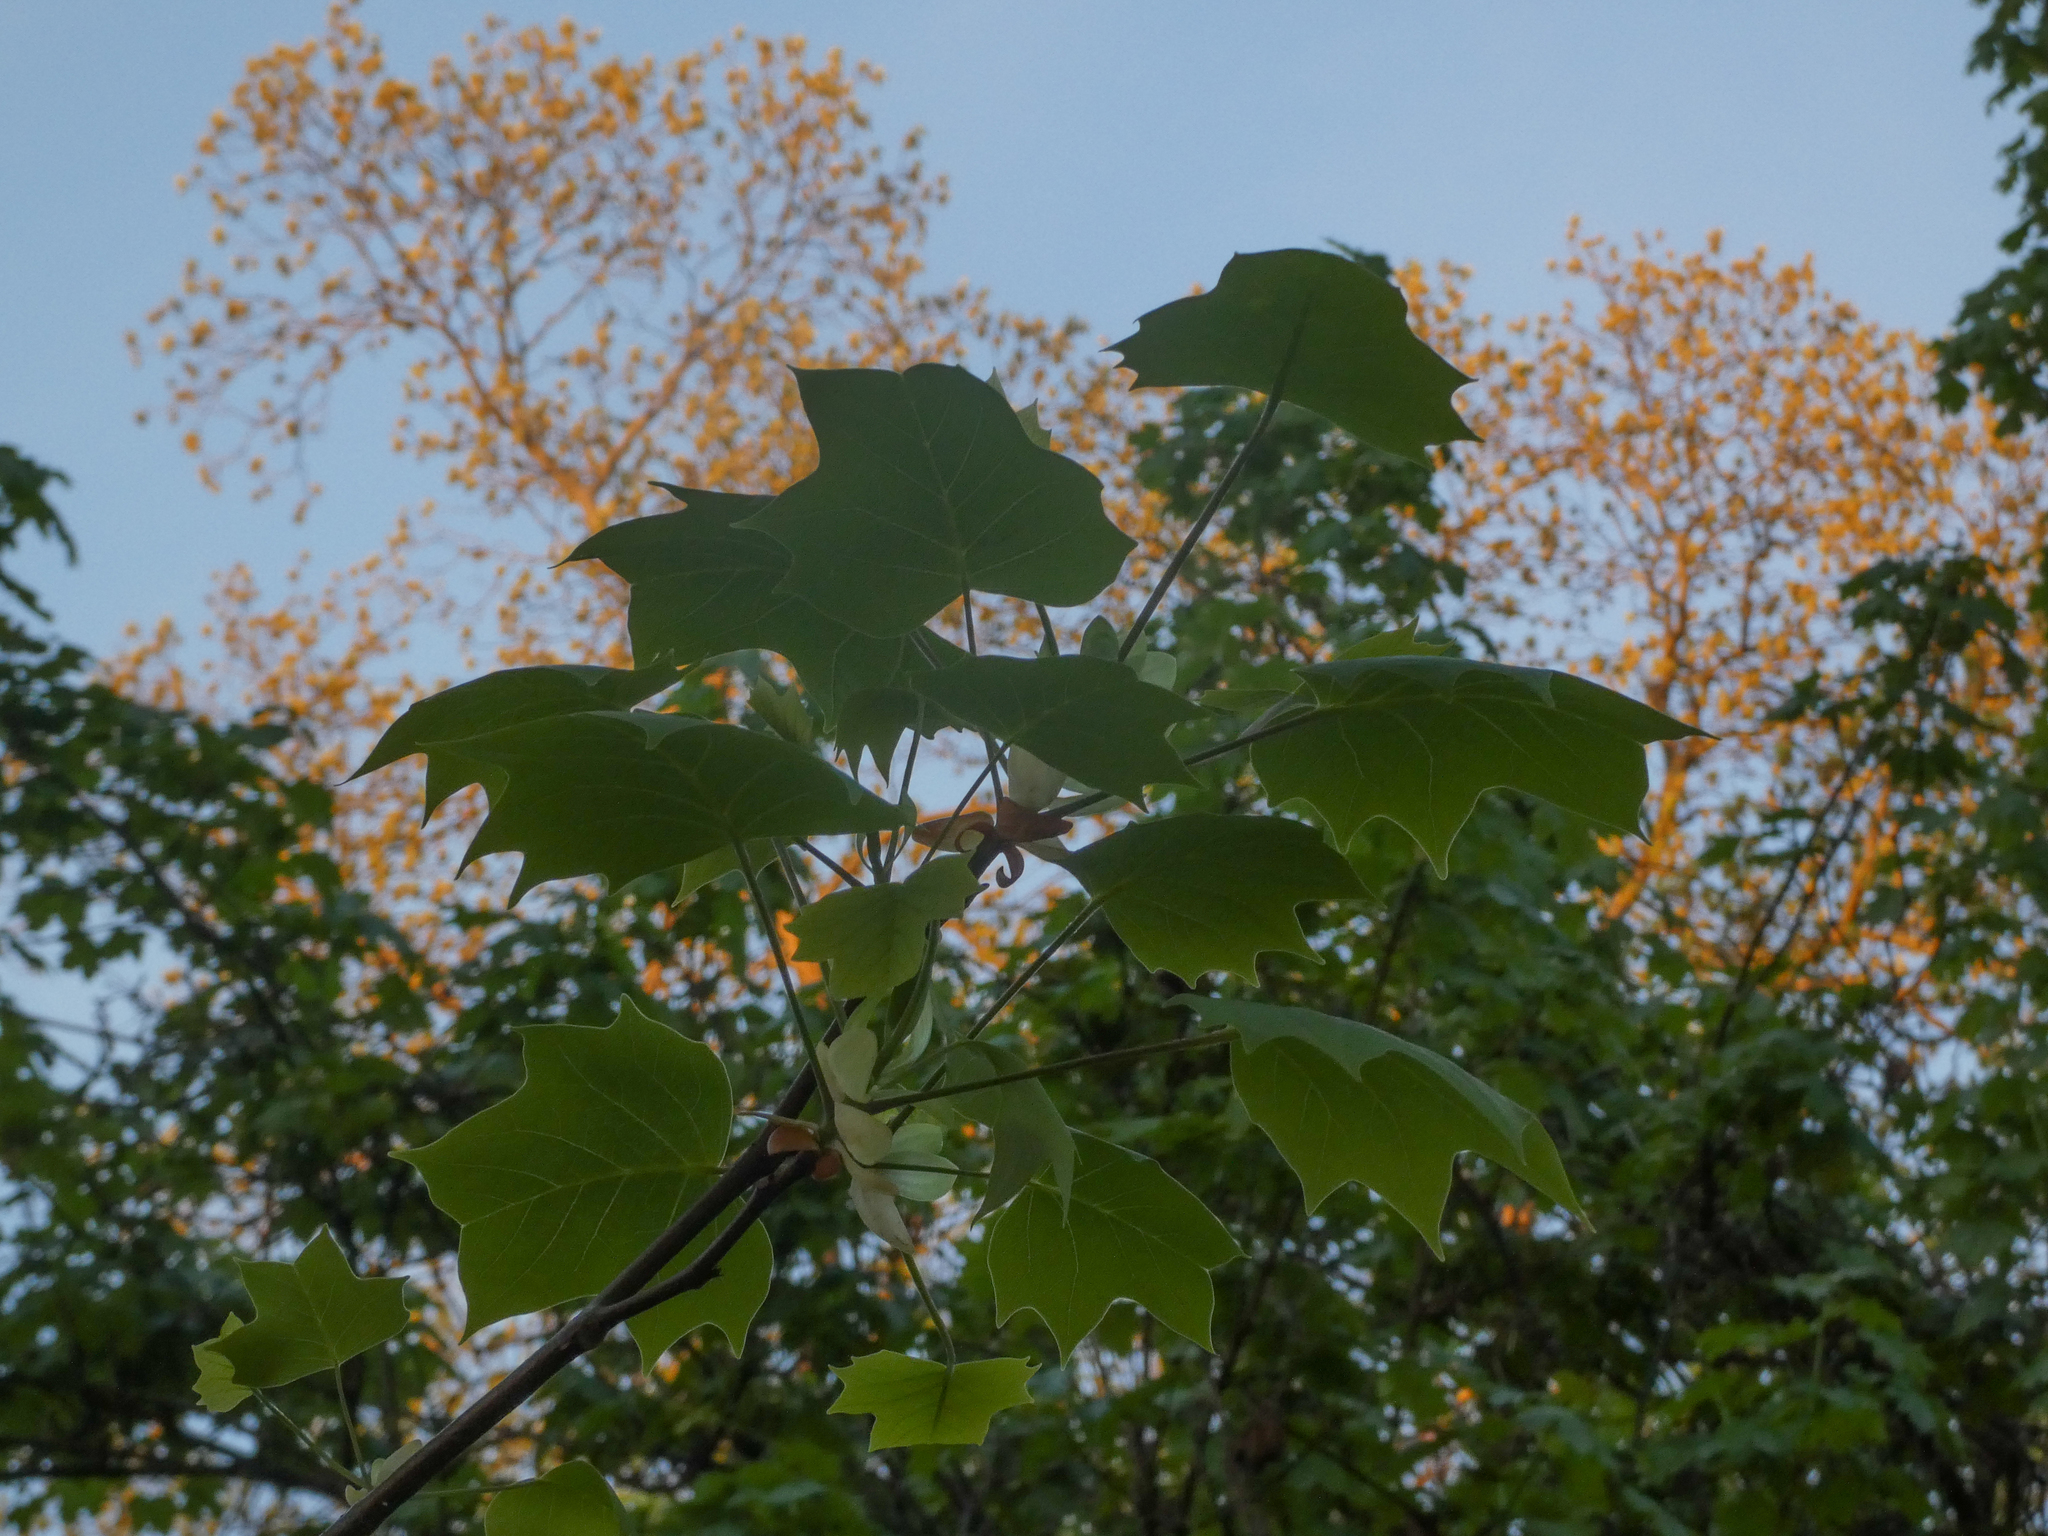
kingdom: Plantae
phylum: Tracheophyta
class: Magnoliopsida
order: Magnoliales
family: Magnoliaceae
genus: Liriodendron
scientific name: Liriodendron tulipifera
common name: Tulip tree
